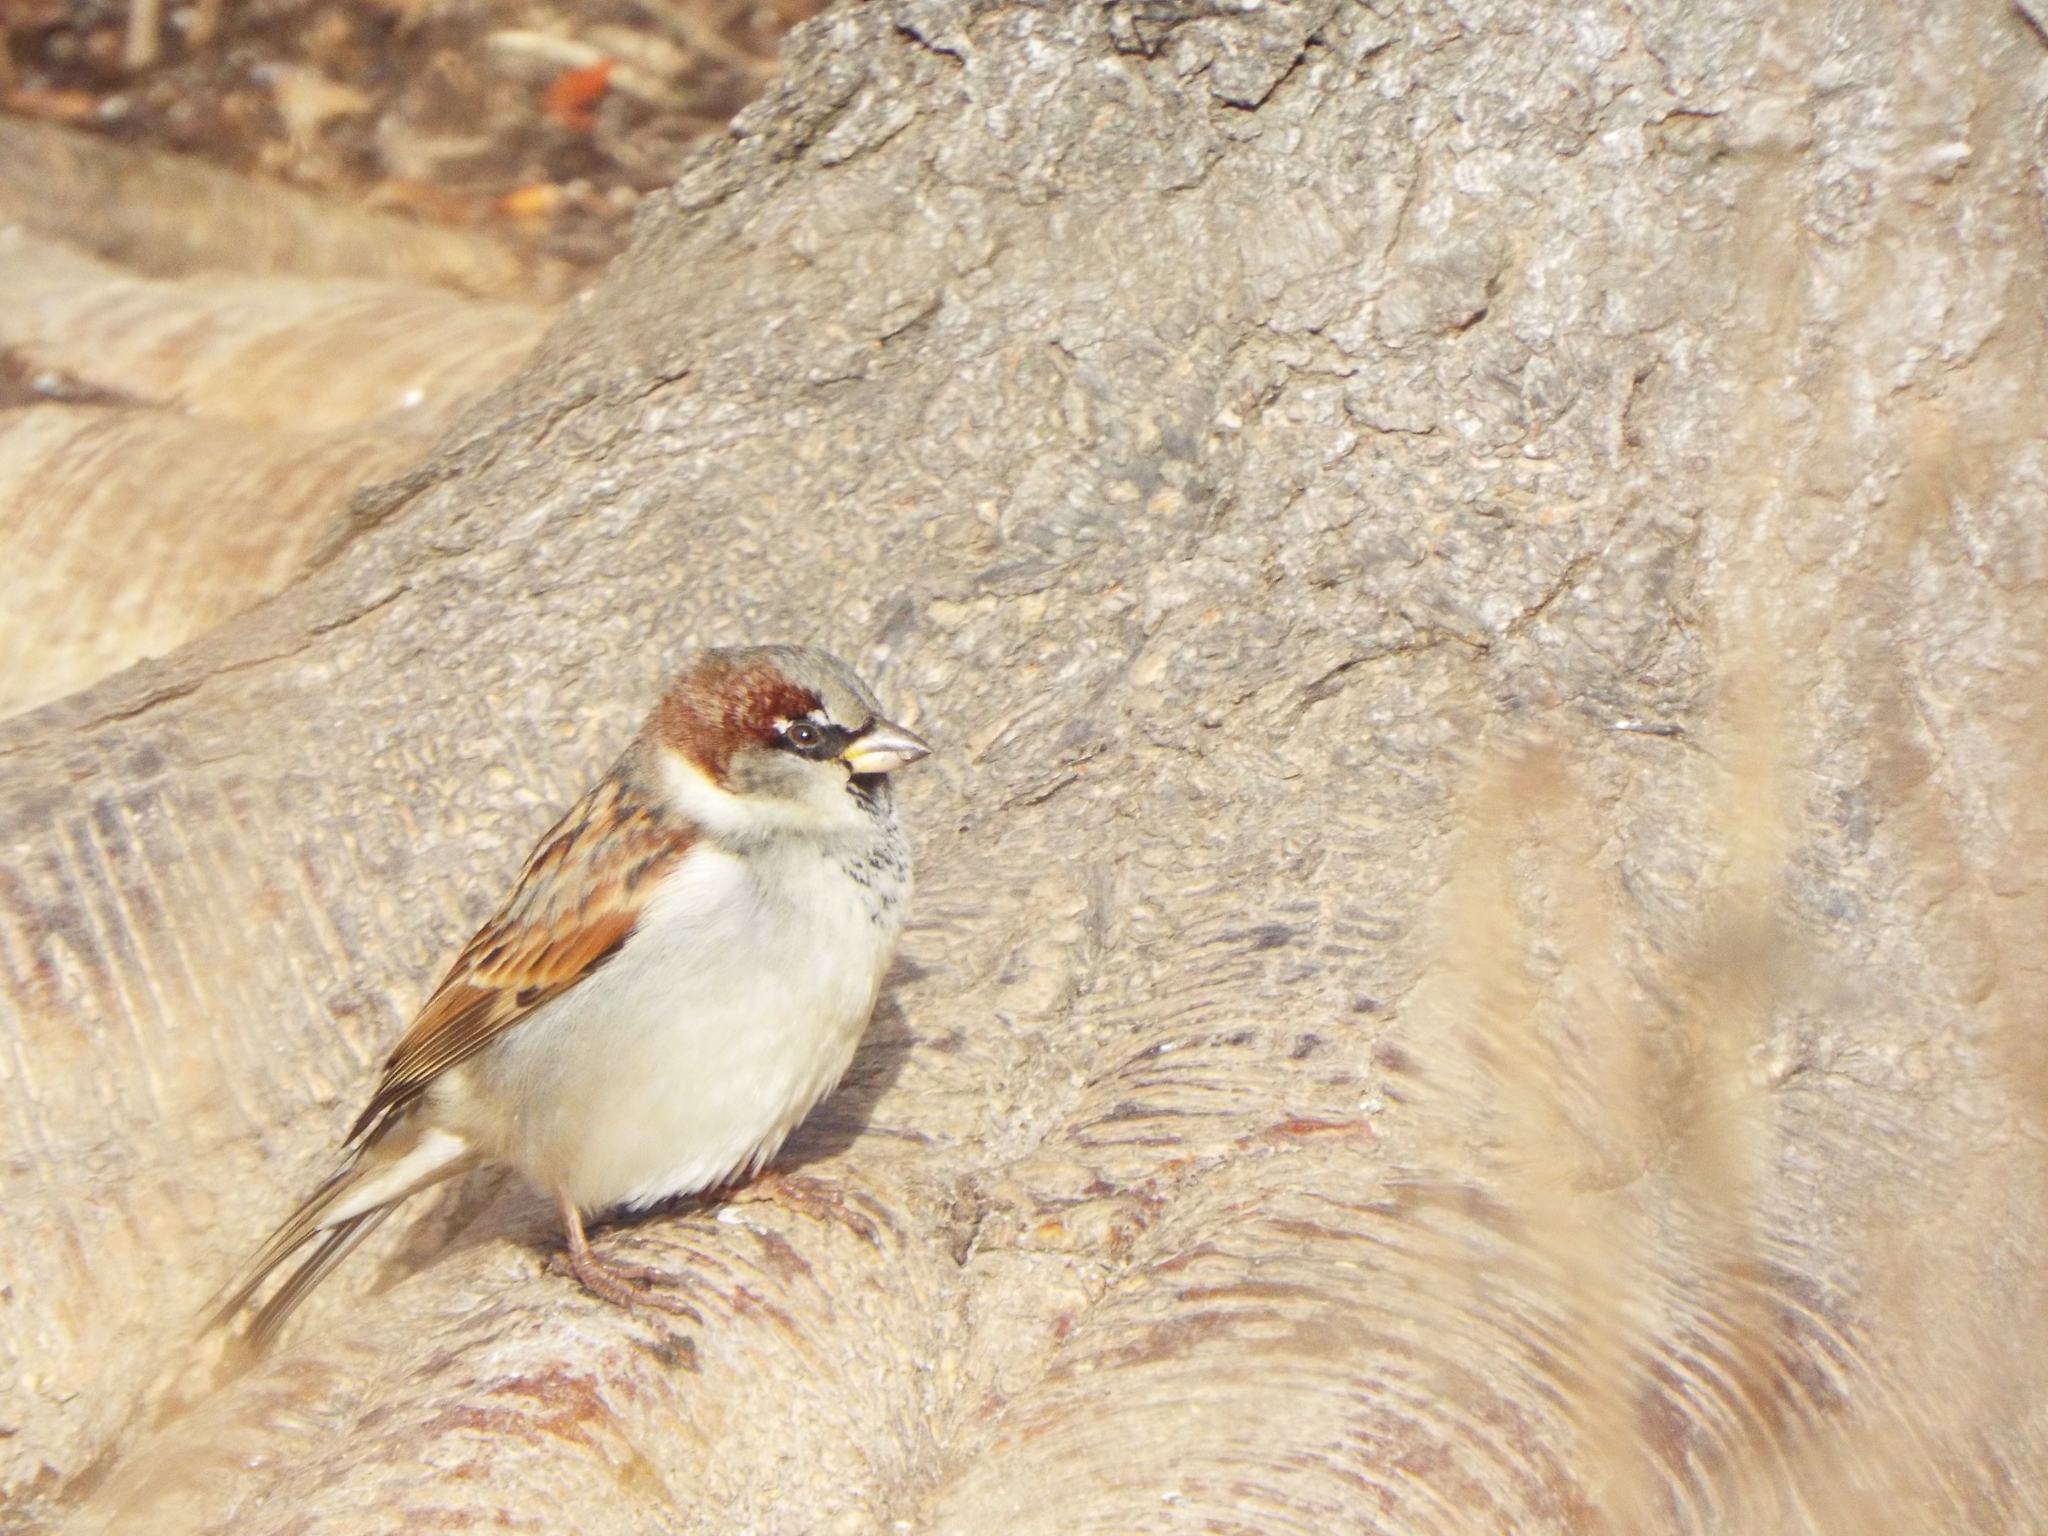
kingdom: Animalia
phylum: Chordata
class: Aves
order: Passeriformes
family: Passeridae
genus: Passer
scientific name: Passer domesticus
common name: House sparrow
